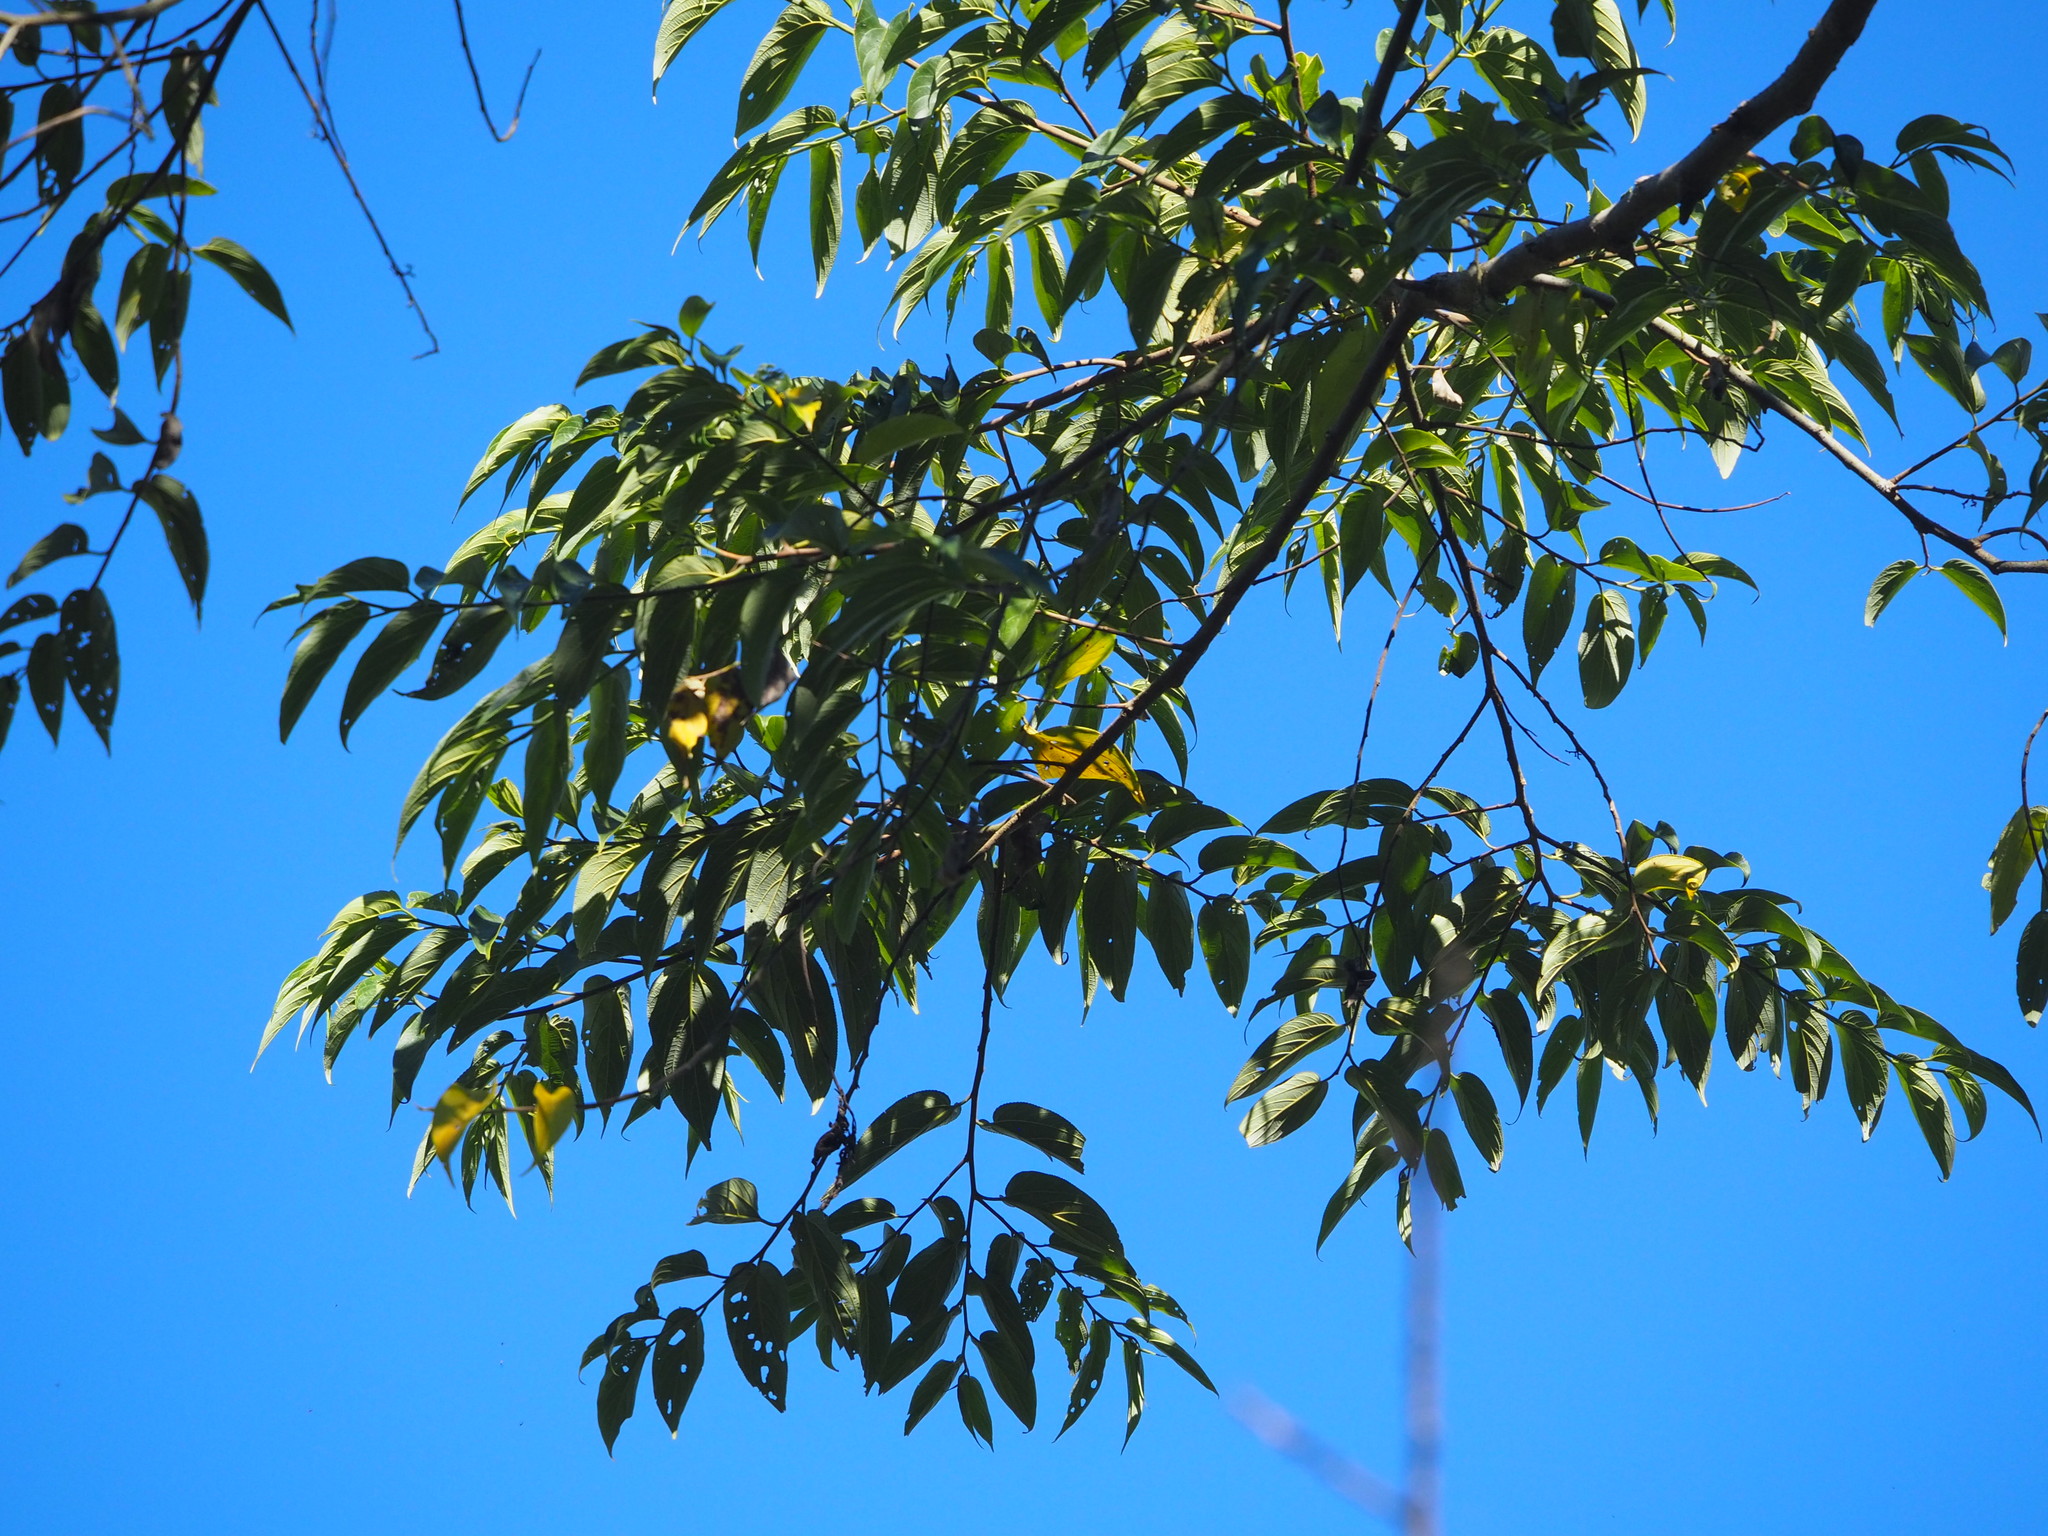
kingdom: Plantae
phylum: Tracheophyta
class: Magnoliopsida
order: Rosales
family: Cannabaceae
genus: Trema
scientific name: Trema orientale
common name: Indian charcoal tree
